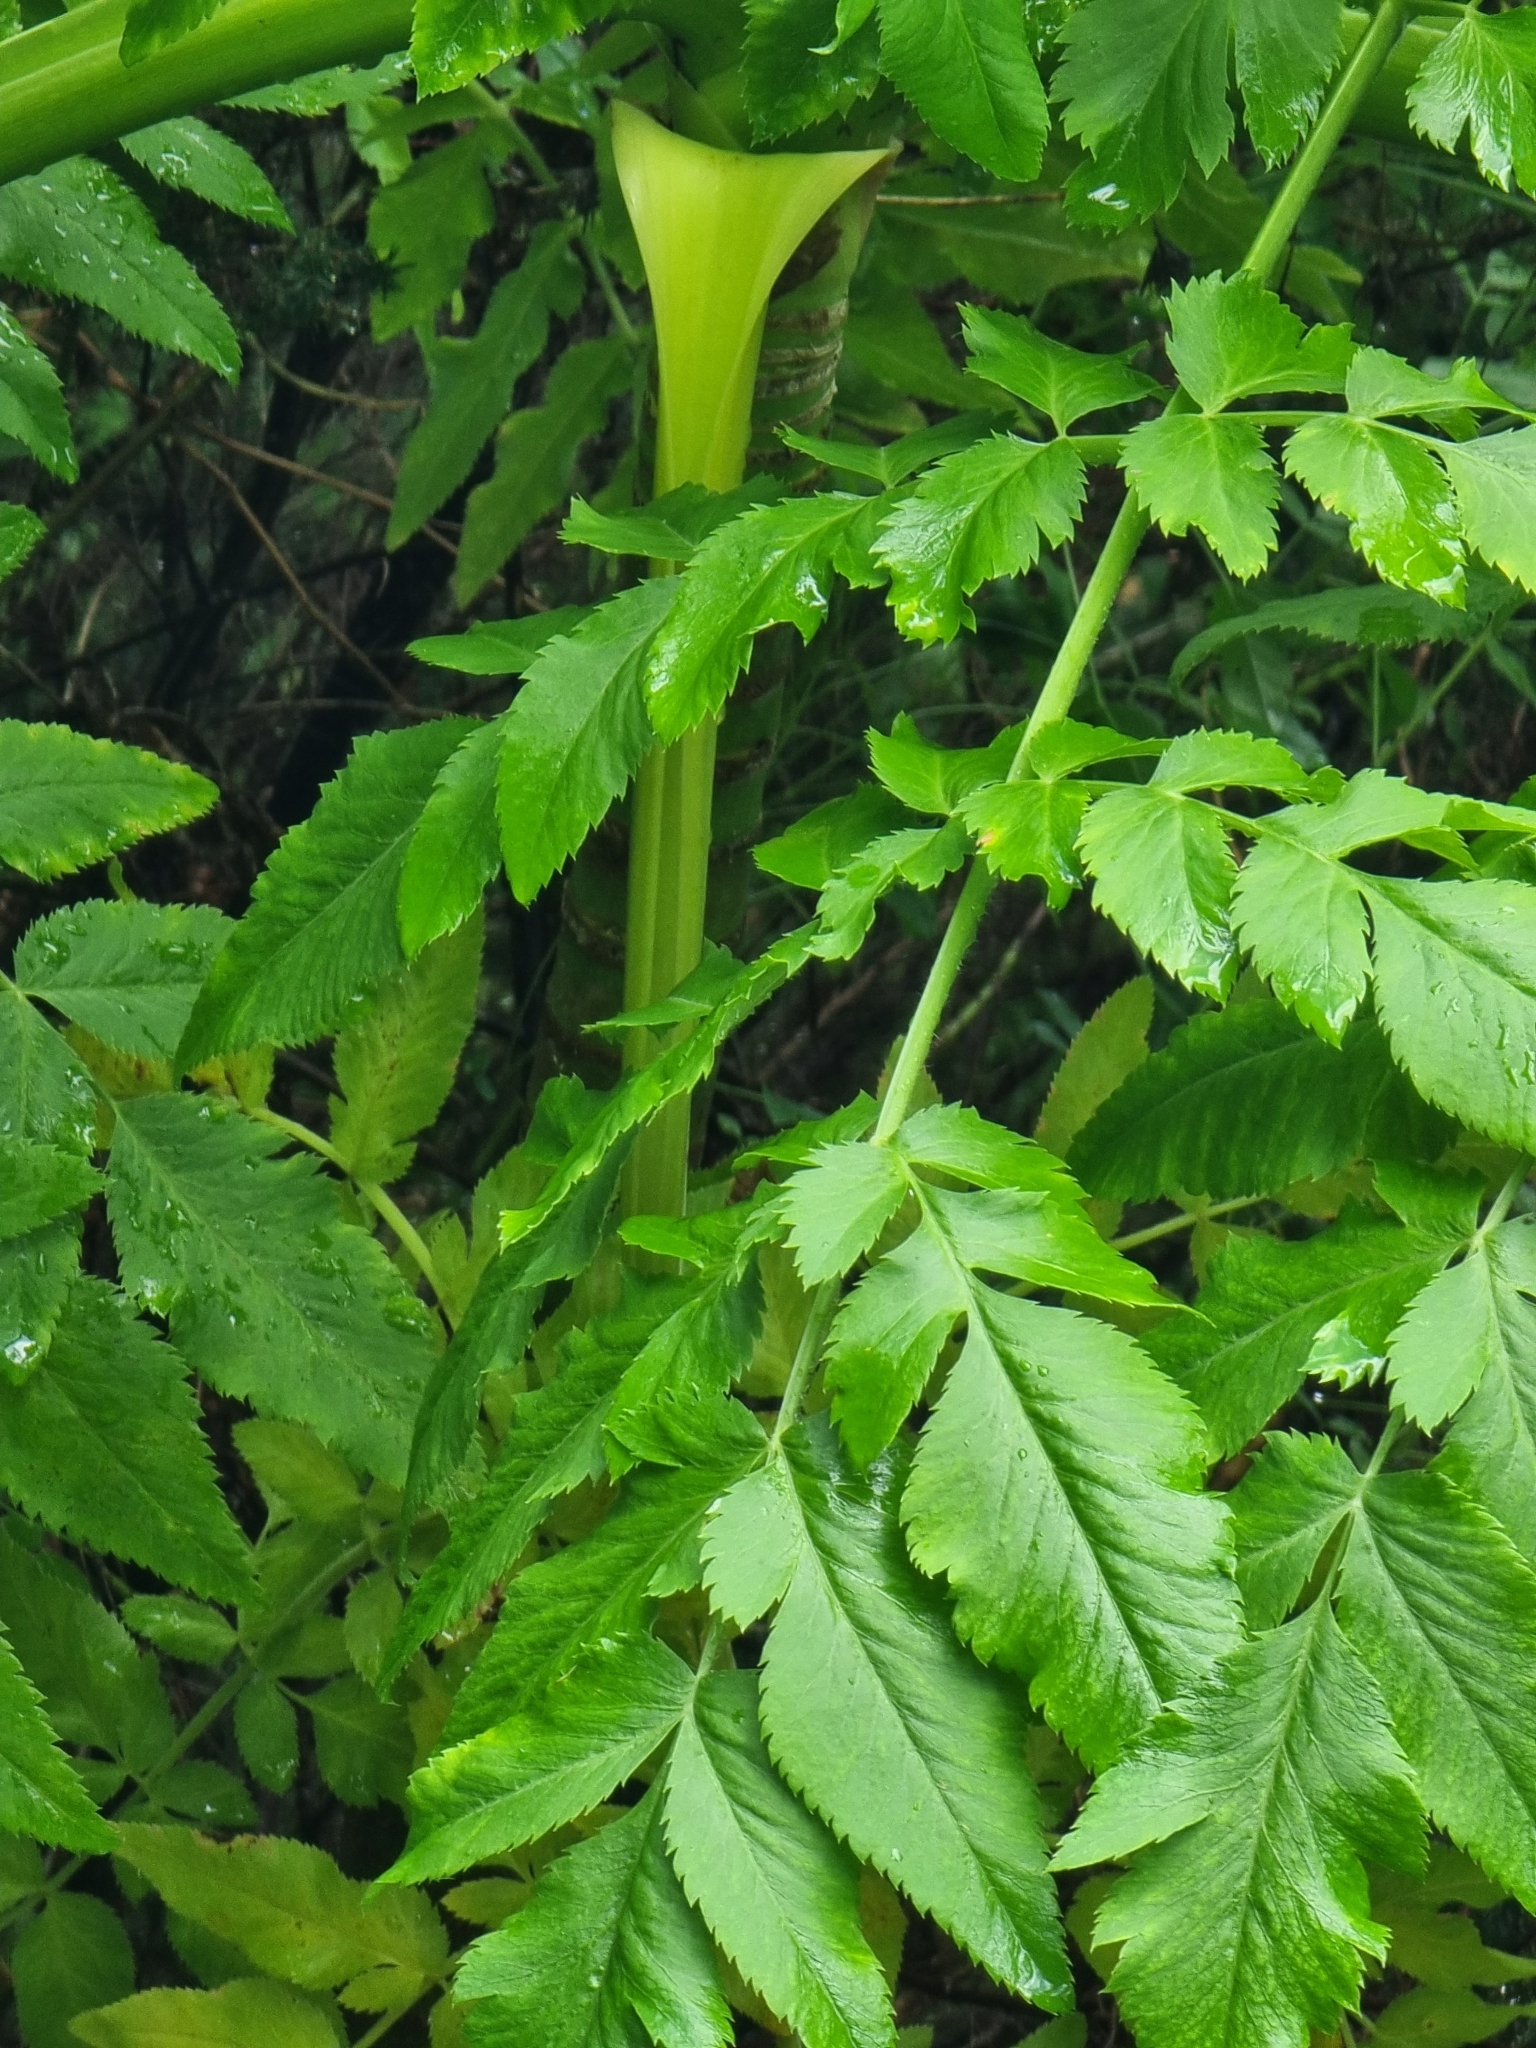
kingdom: Plantae
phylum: Tracheophyta
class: Magnoliopsida
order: Apiales
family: Apiaceae
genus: Daucus
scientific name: Daucus decipiens
